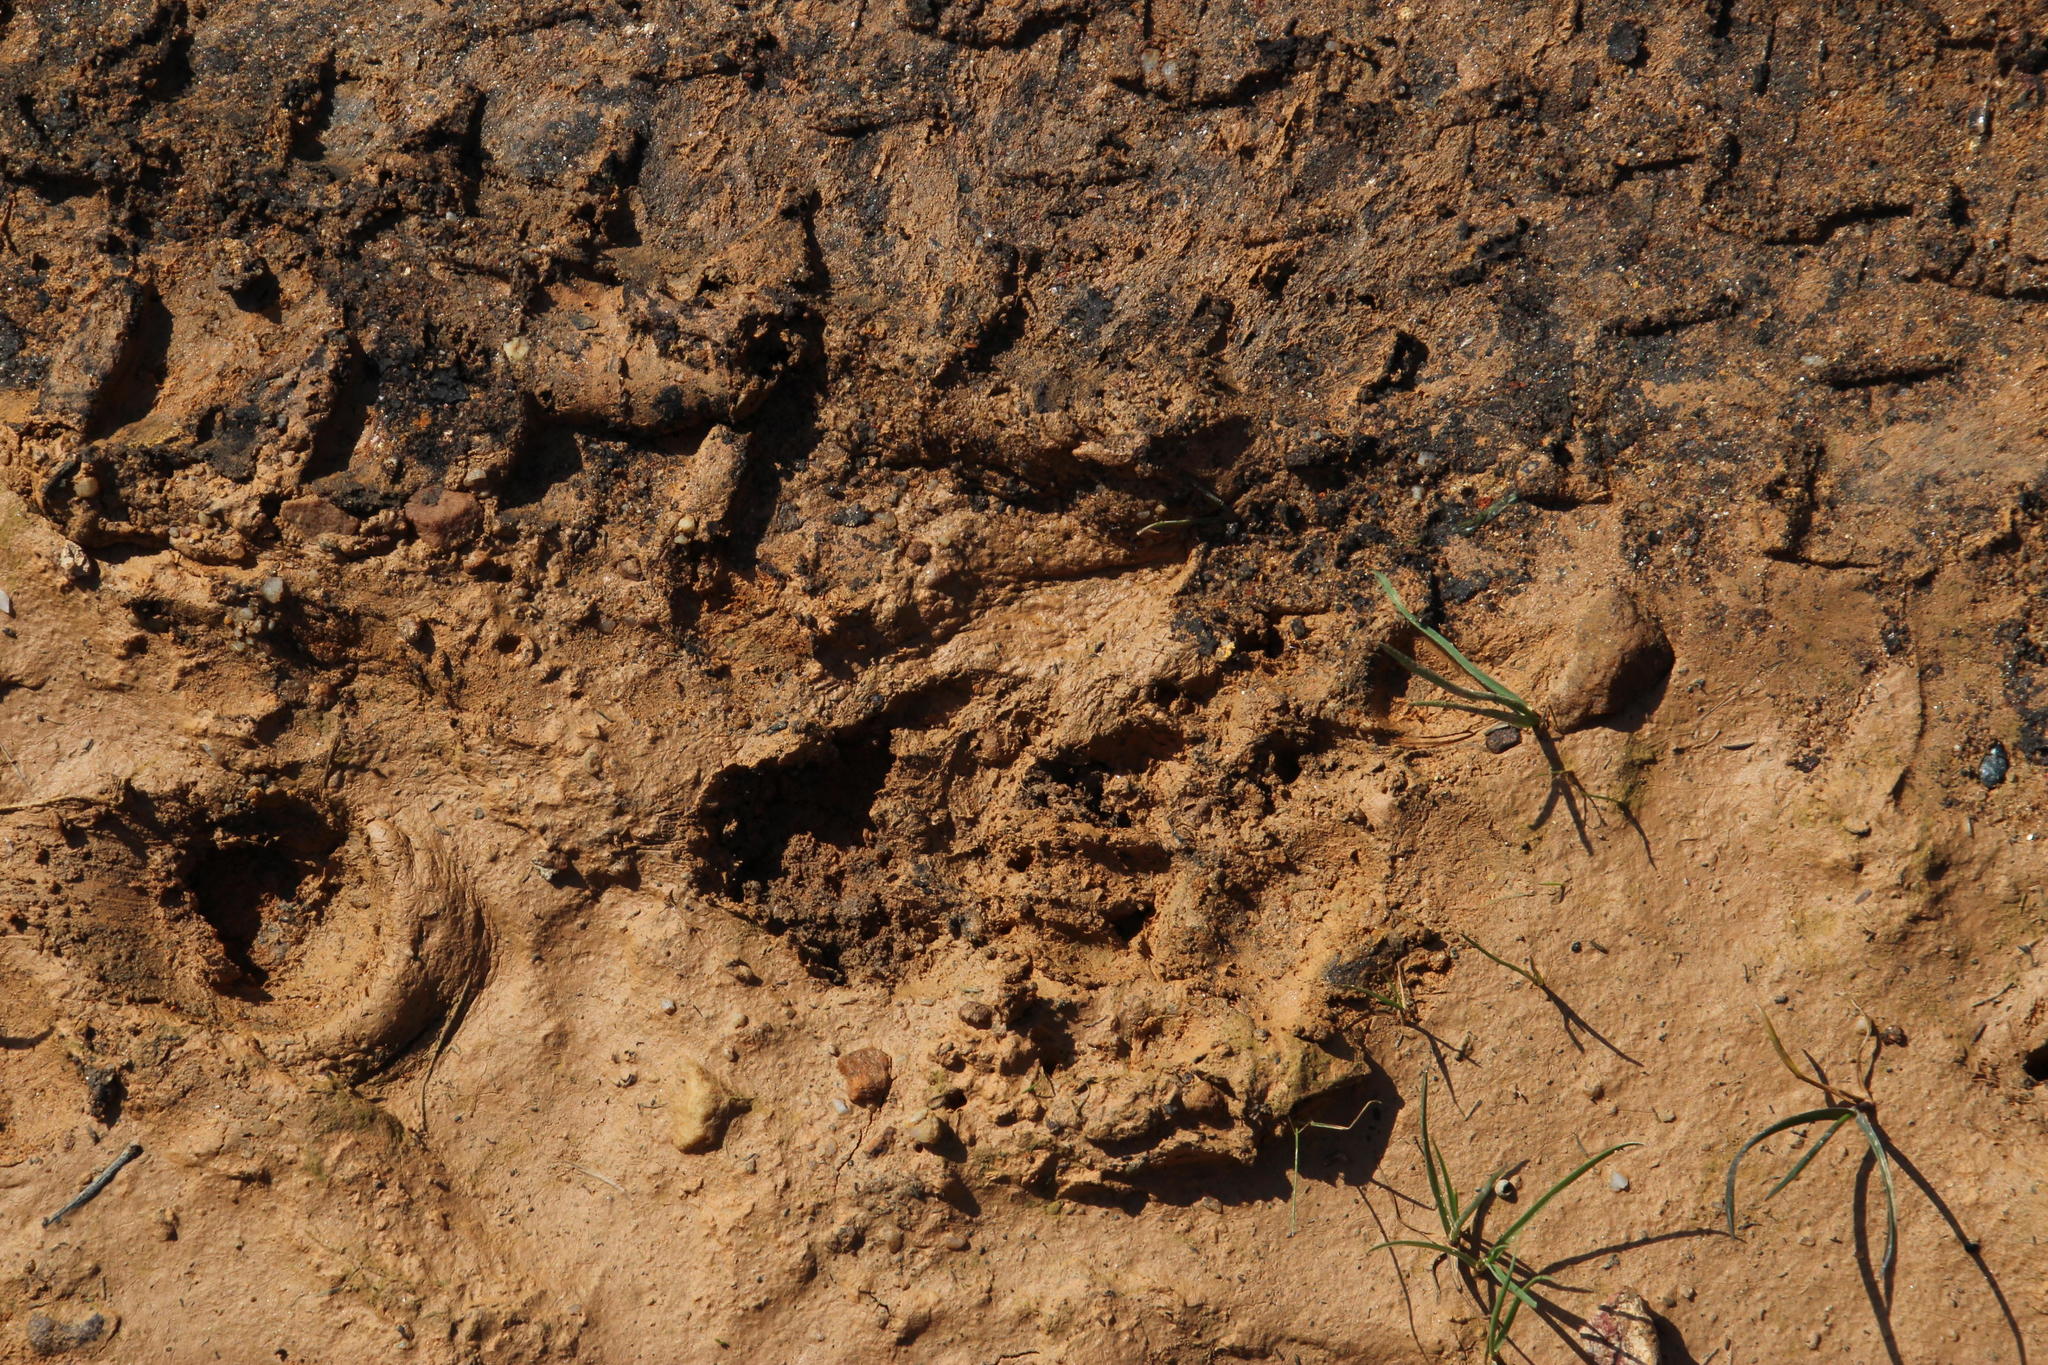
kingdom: Animalia
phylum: Chordata
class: Mammalia
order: Primates
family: Cercopithecidae
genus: Papio
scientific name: Papio ursinus
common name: Chacma baboon
